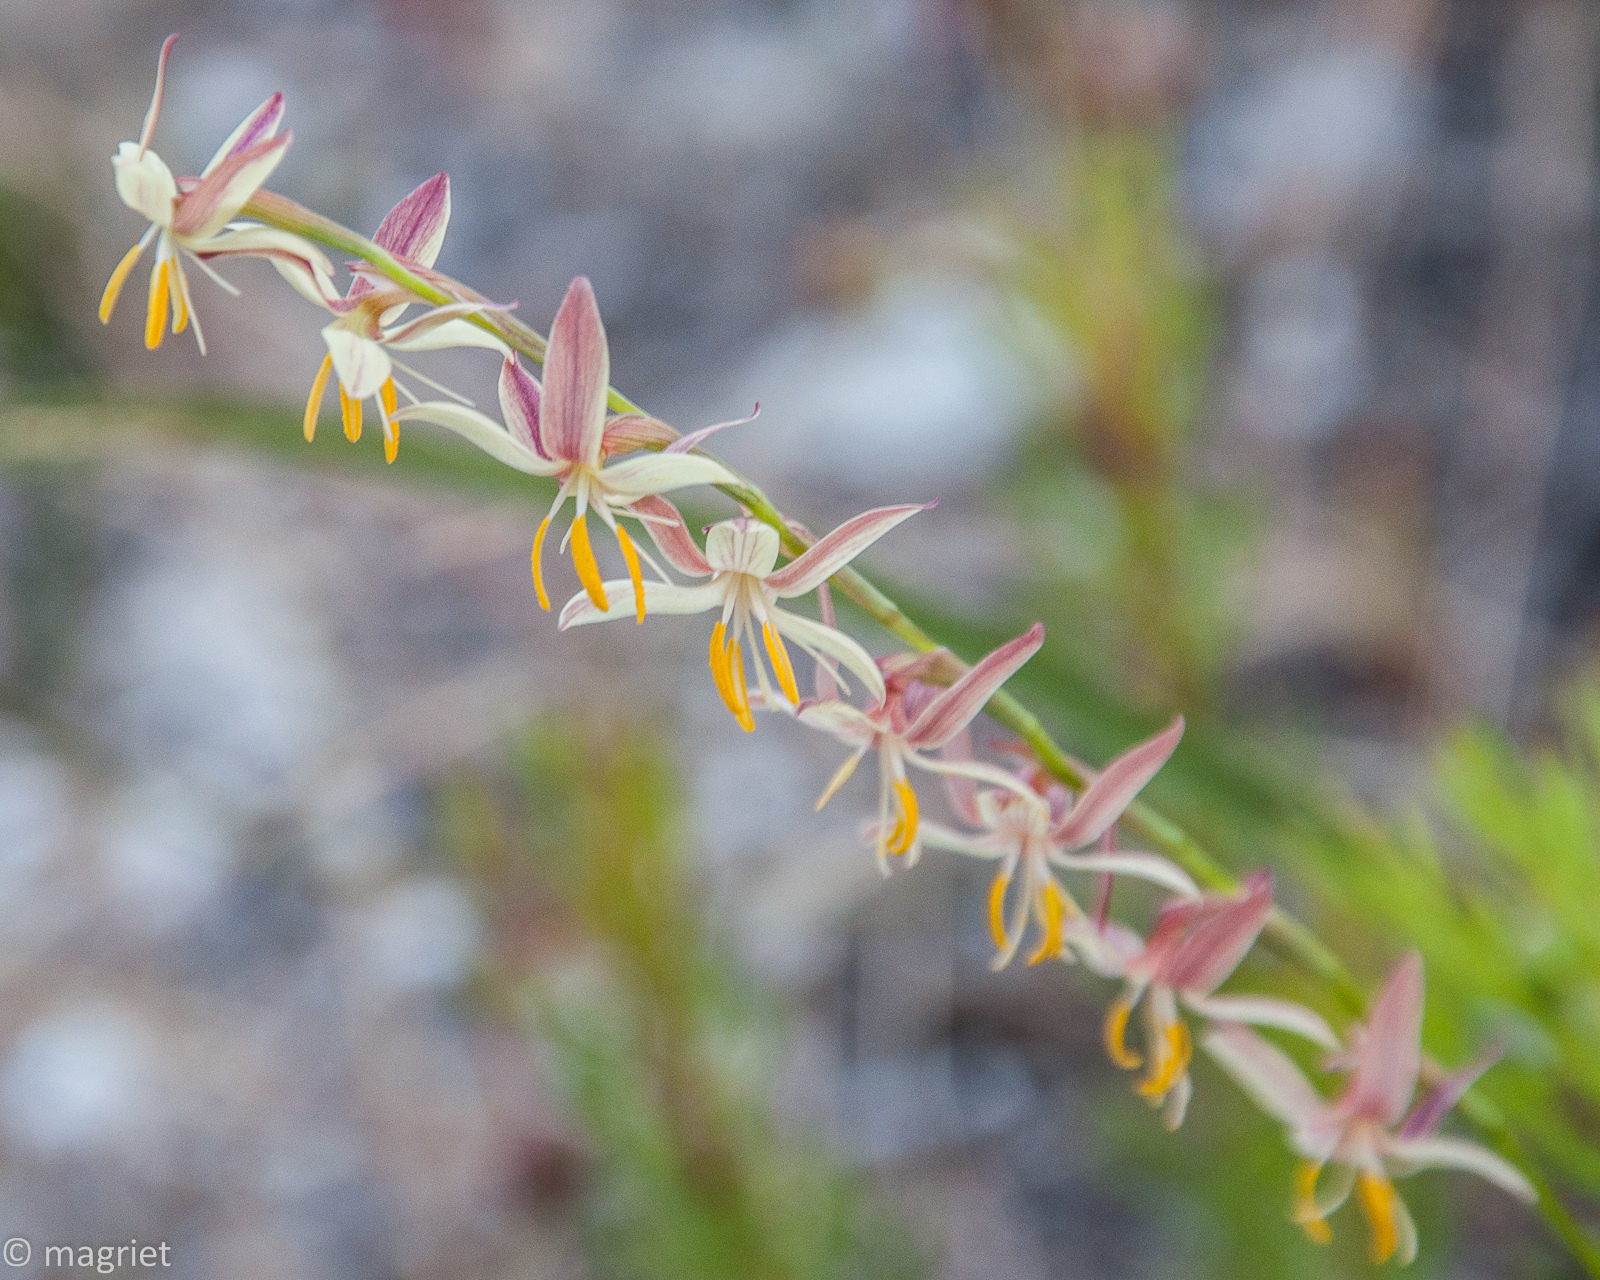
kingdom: Plantae
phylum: Tracheophyta
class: Liliopsida
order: Asparagales
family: Iridaceae
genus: Hesperantha
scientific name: Hesperantha radiata
